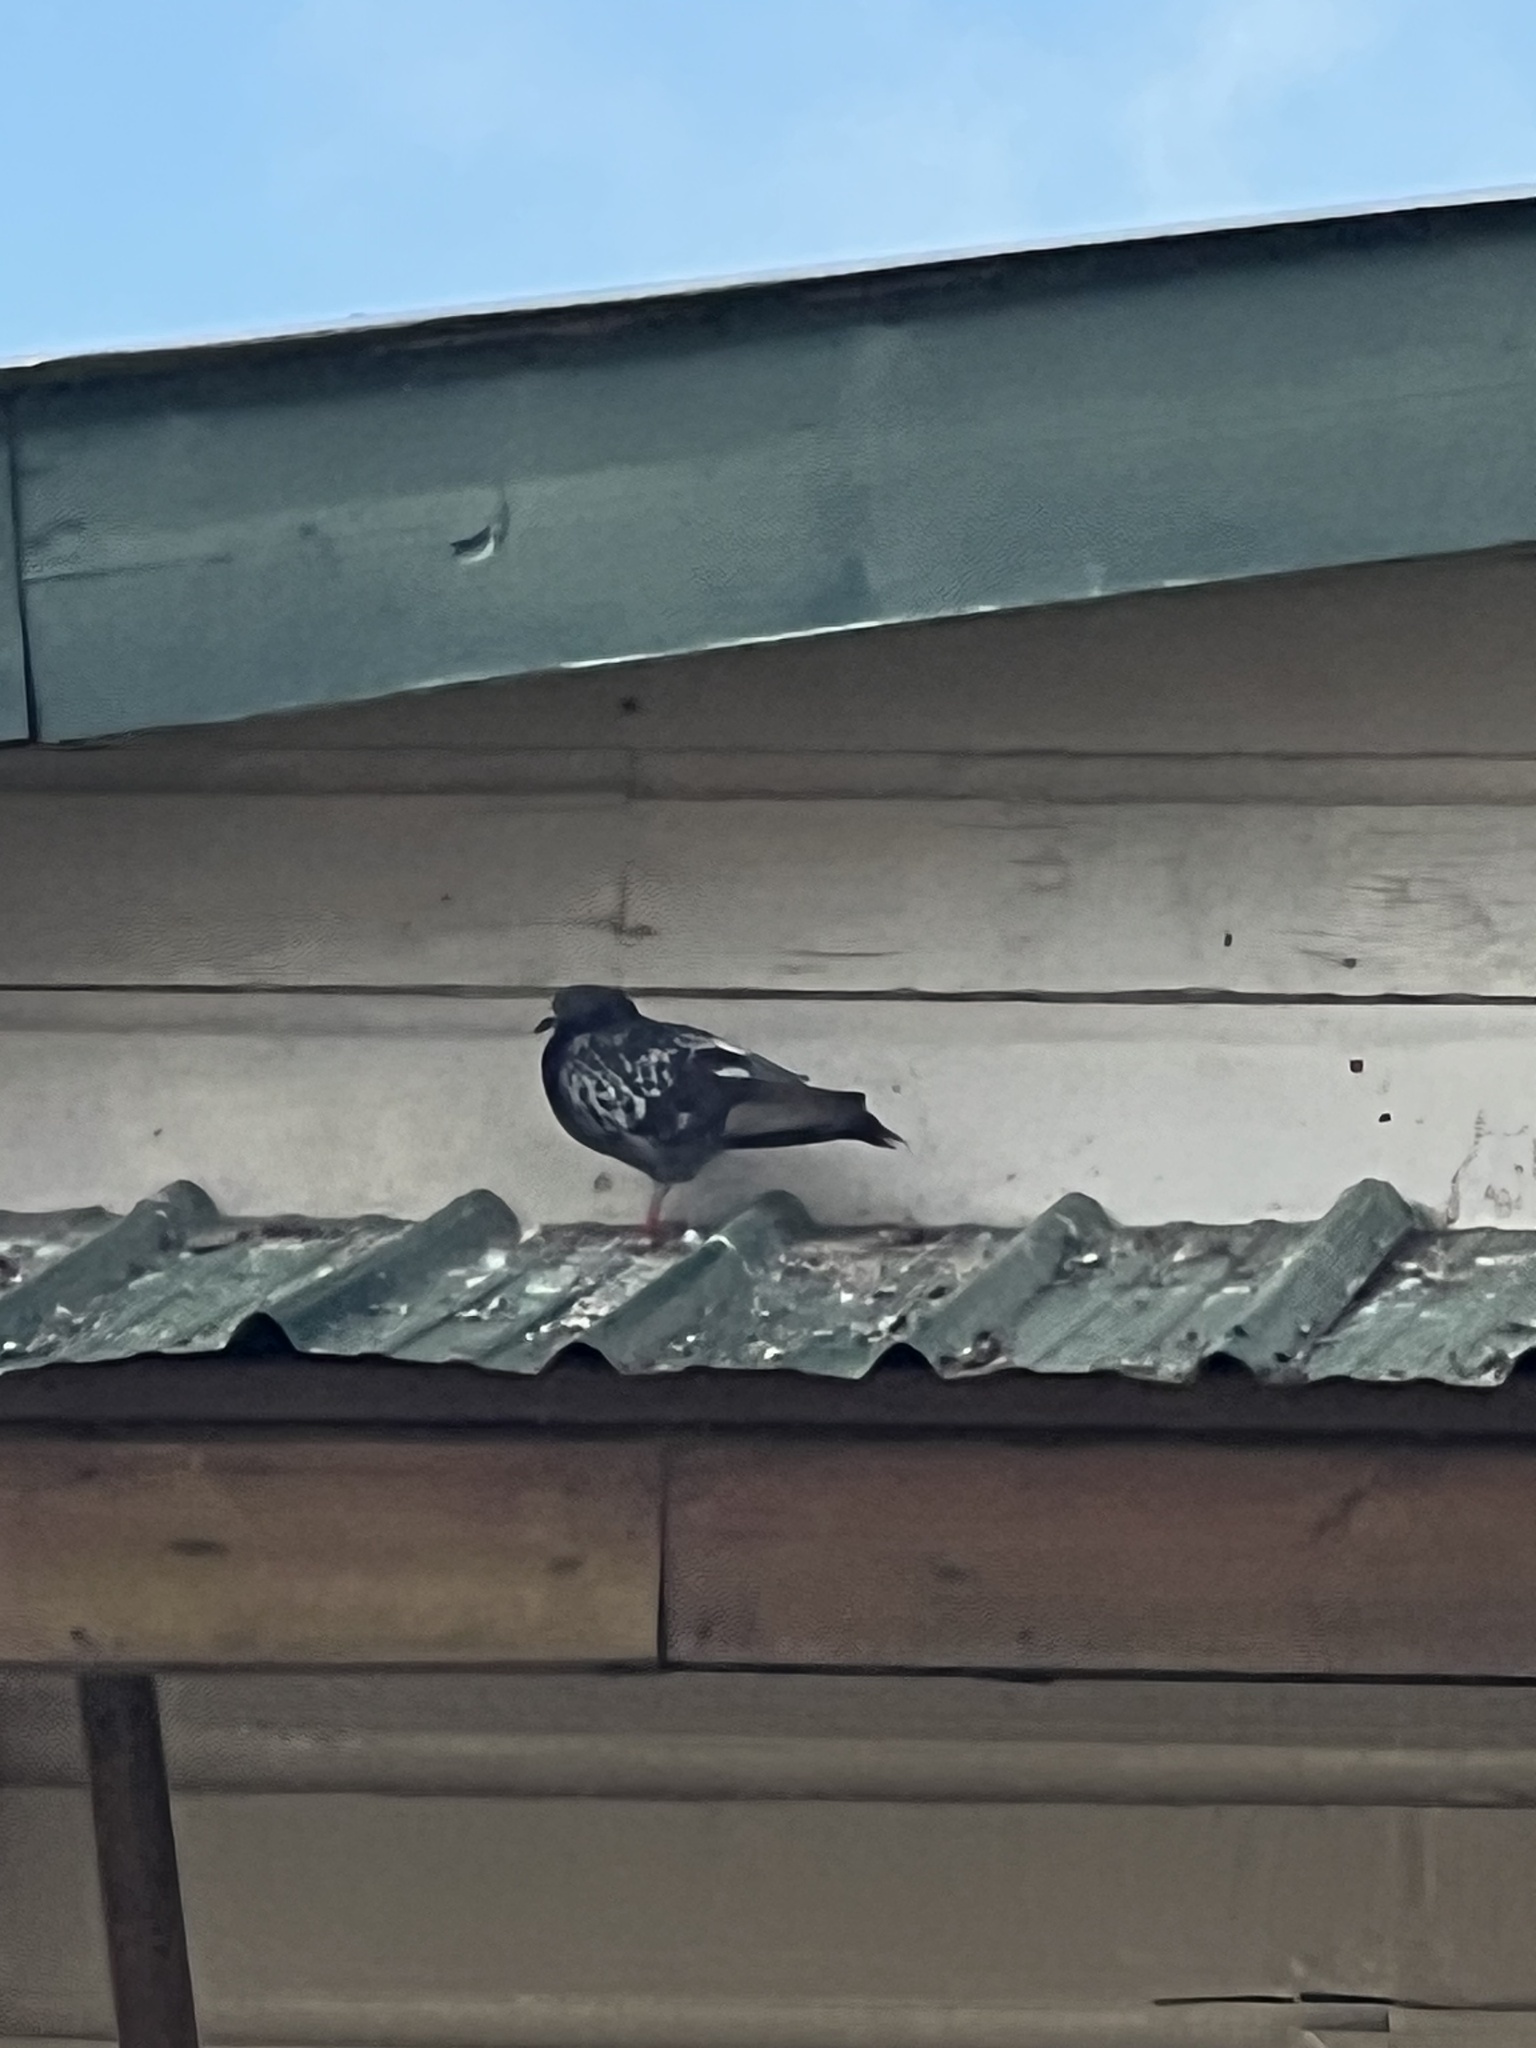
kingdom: Animalia
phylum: Chordata
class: Aves
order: Columbiformes
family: Columbidae
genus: Columba
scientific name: Columba livia
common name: Rock pigeon
